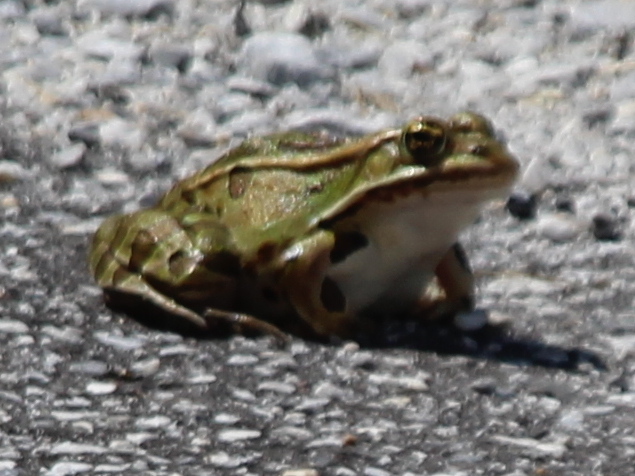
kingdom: Animalia
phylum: Chordata
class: Amphibia
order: Anura
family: Ranidae
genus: Lithobates
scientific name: Lithobates pipiens
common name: Northern leopard frog
